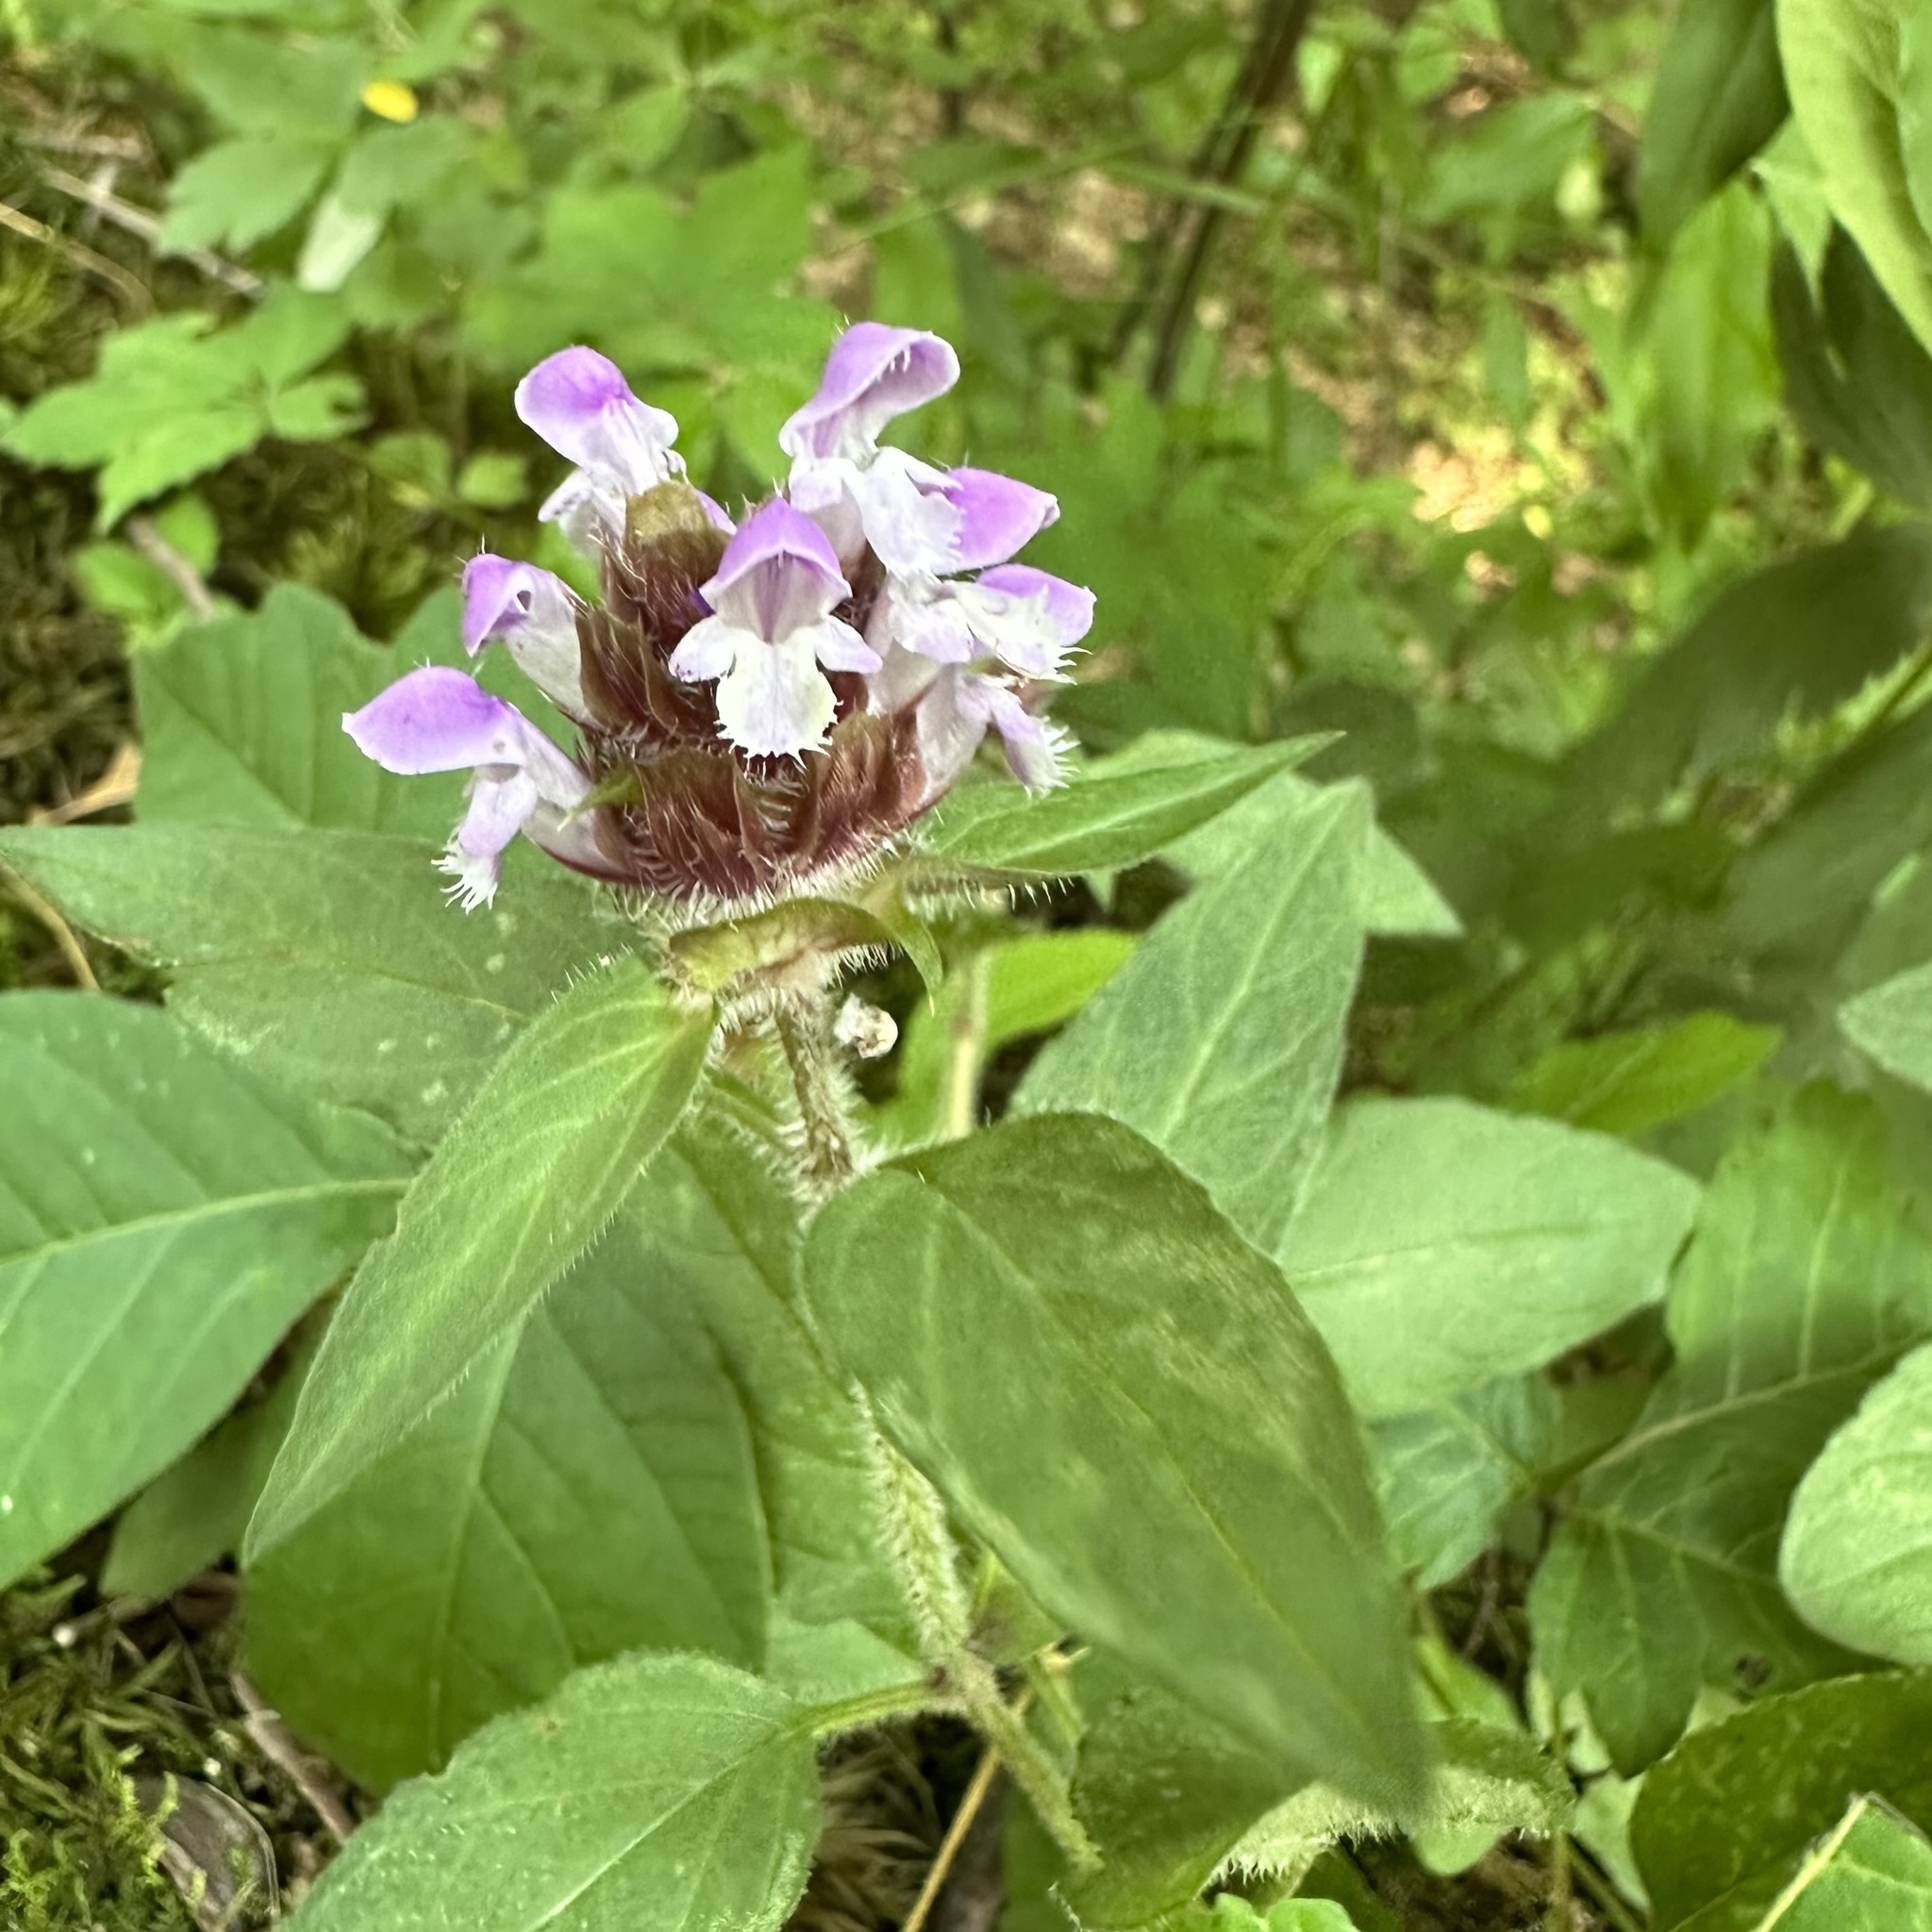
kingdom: Plantae
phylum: Tracheophyta
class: Magnoliopsida
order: Lamiales
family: Lamiaceae
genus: Prunella
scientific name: Prunella vulgaris
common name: Heal-all
